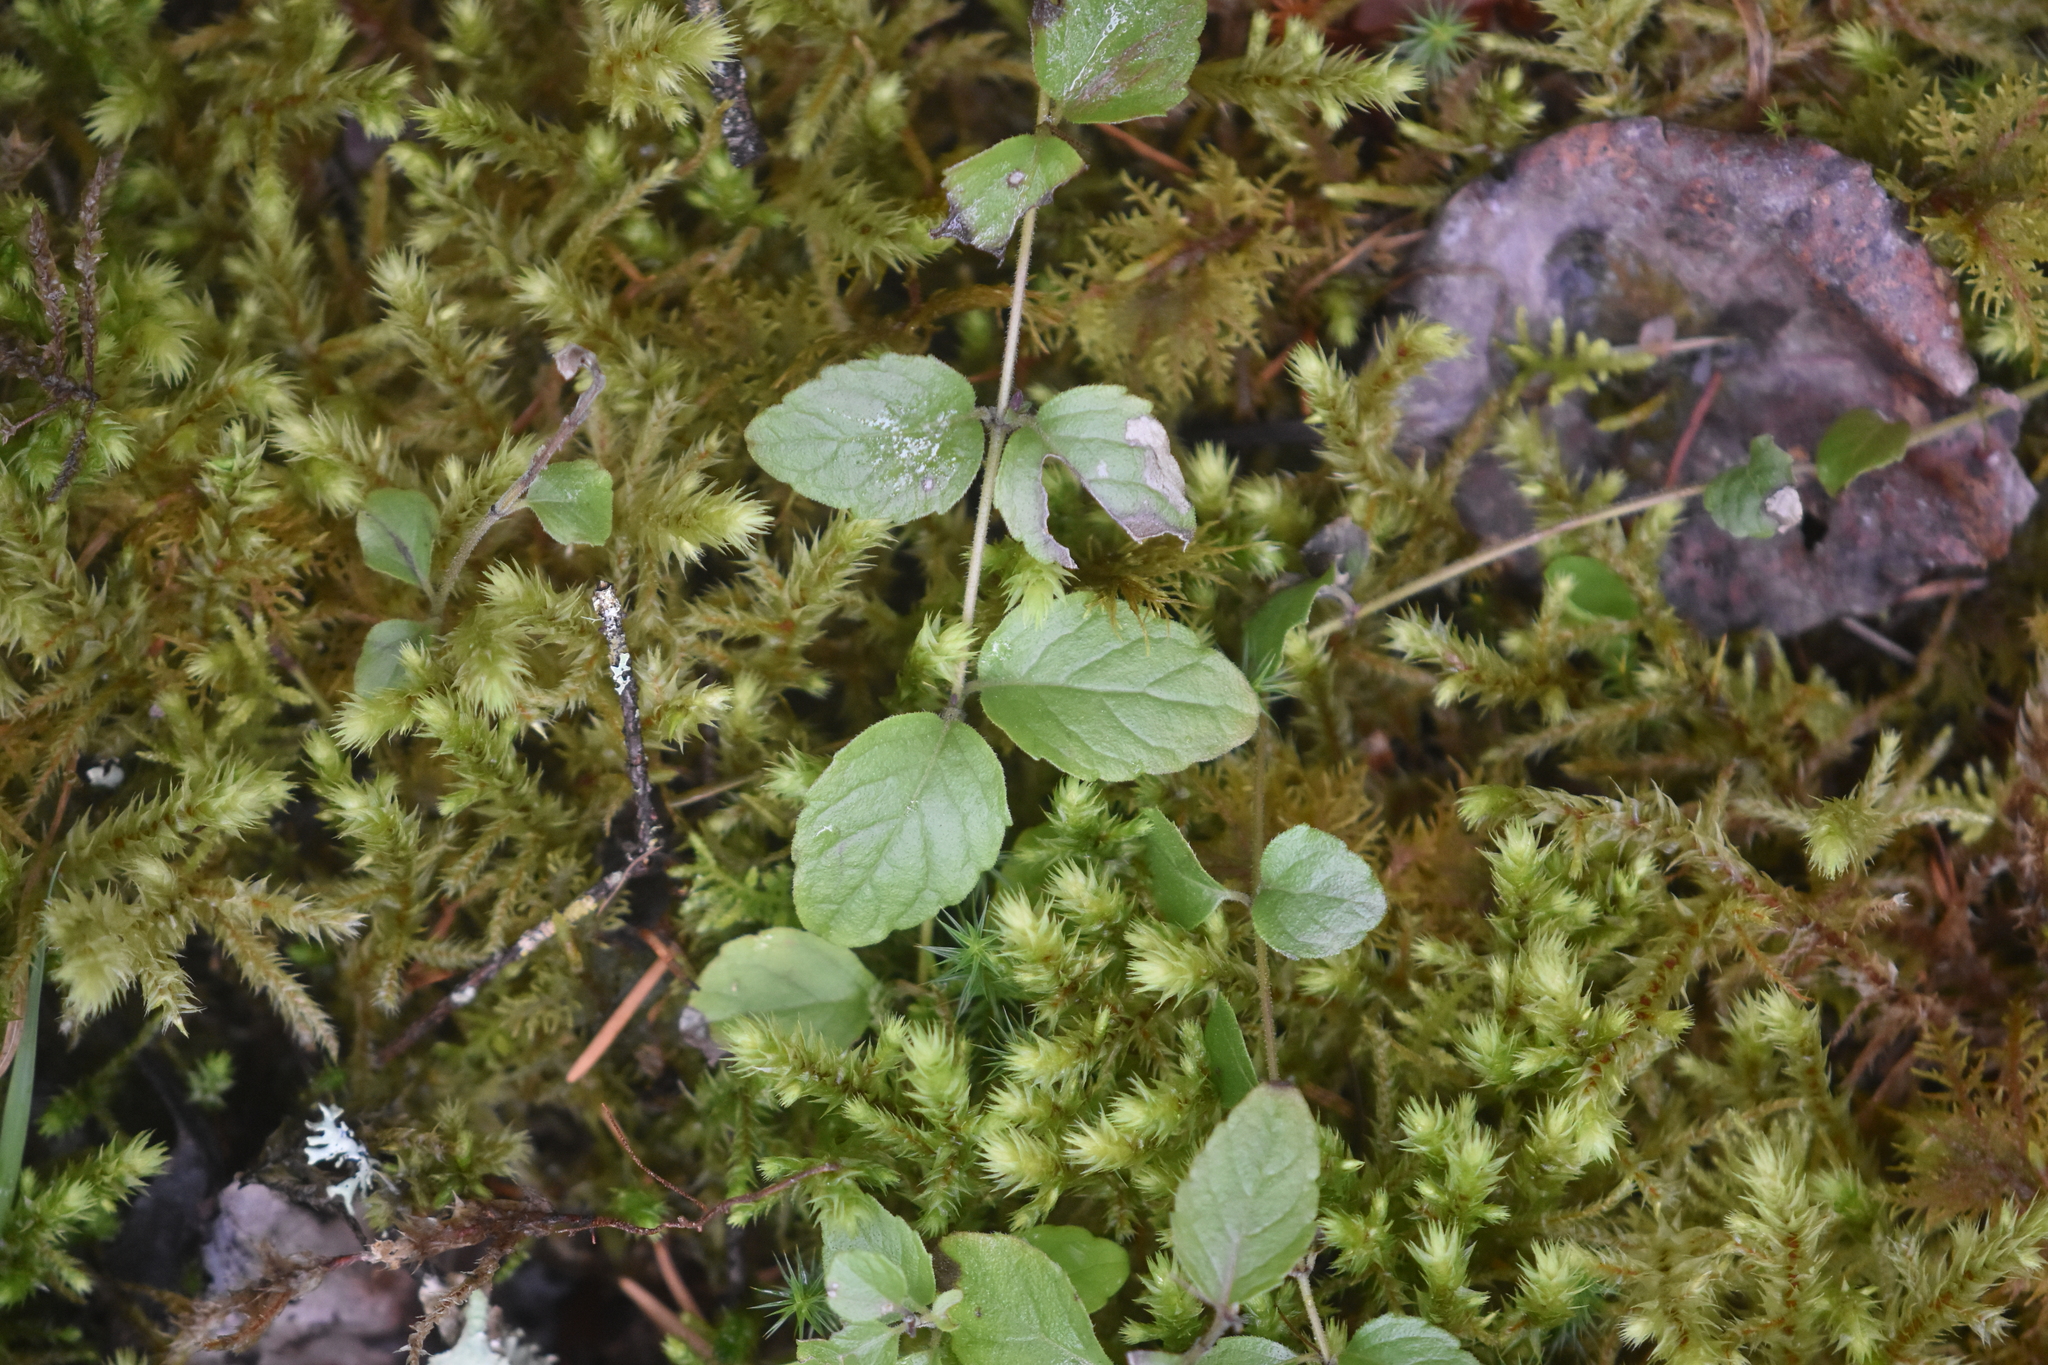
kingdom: Plantae
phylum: Tracheophyta
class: Magnoliopsida
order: Lamiales
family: Lamiaceae
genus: Micromeria
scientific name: Micromeria douglasii
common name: Yerba buena
